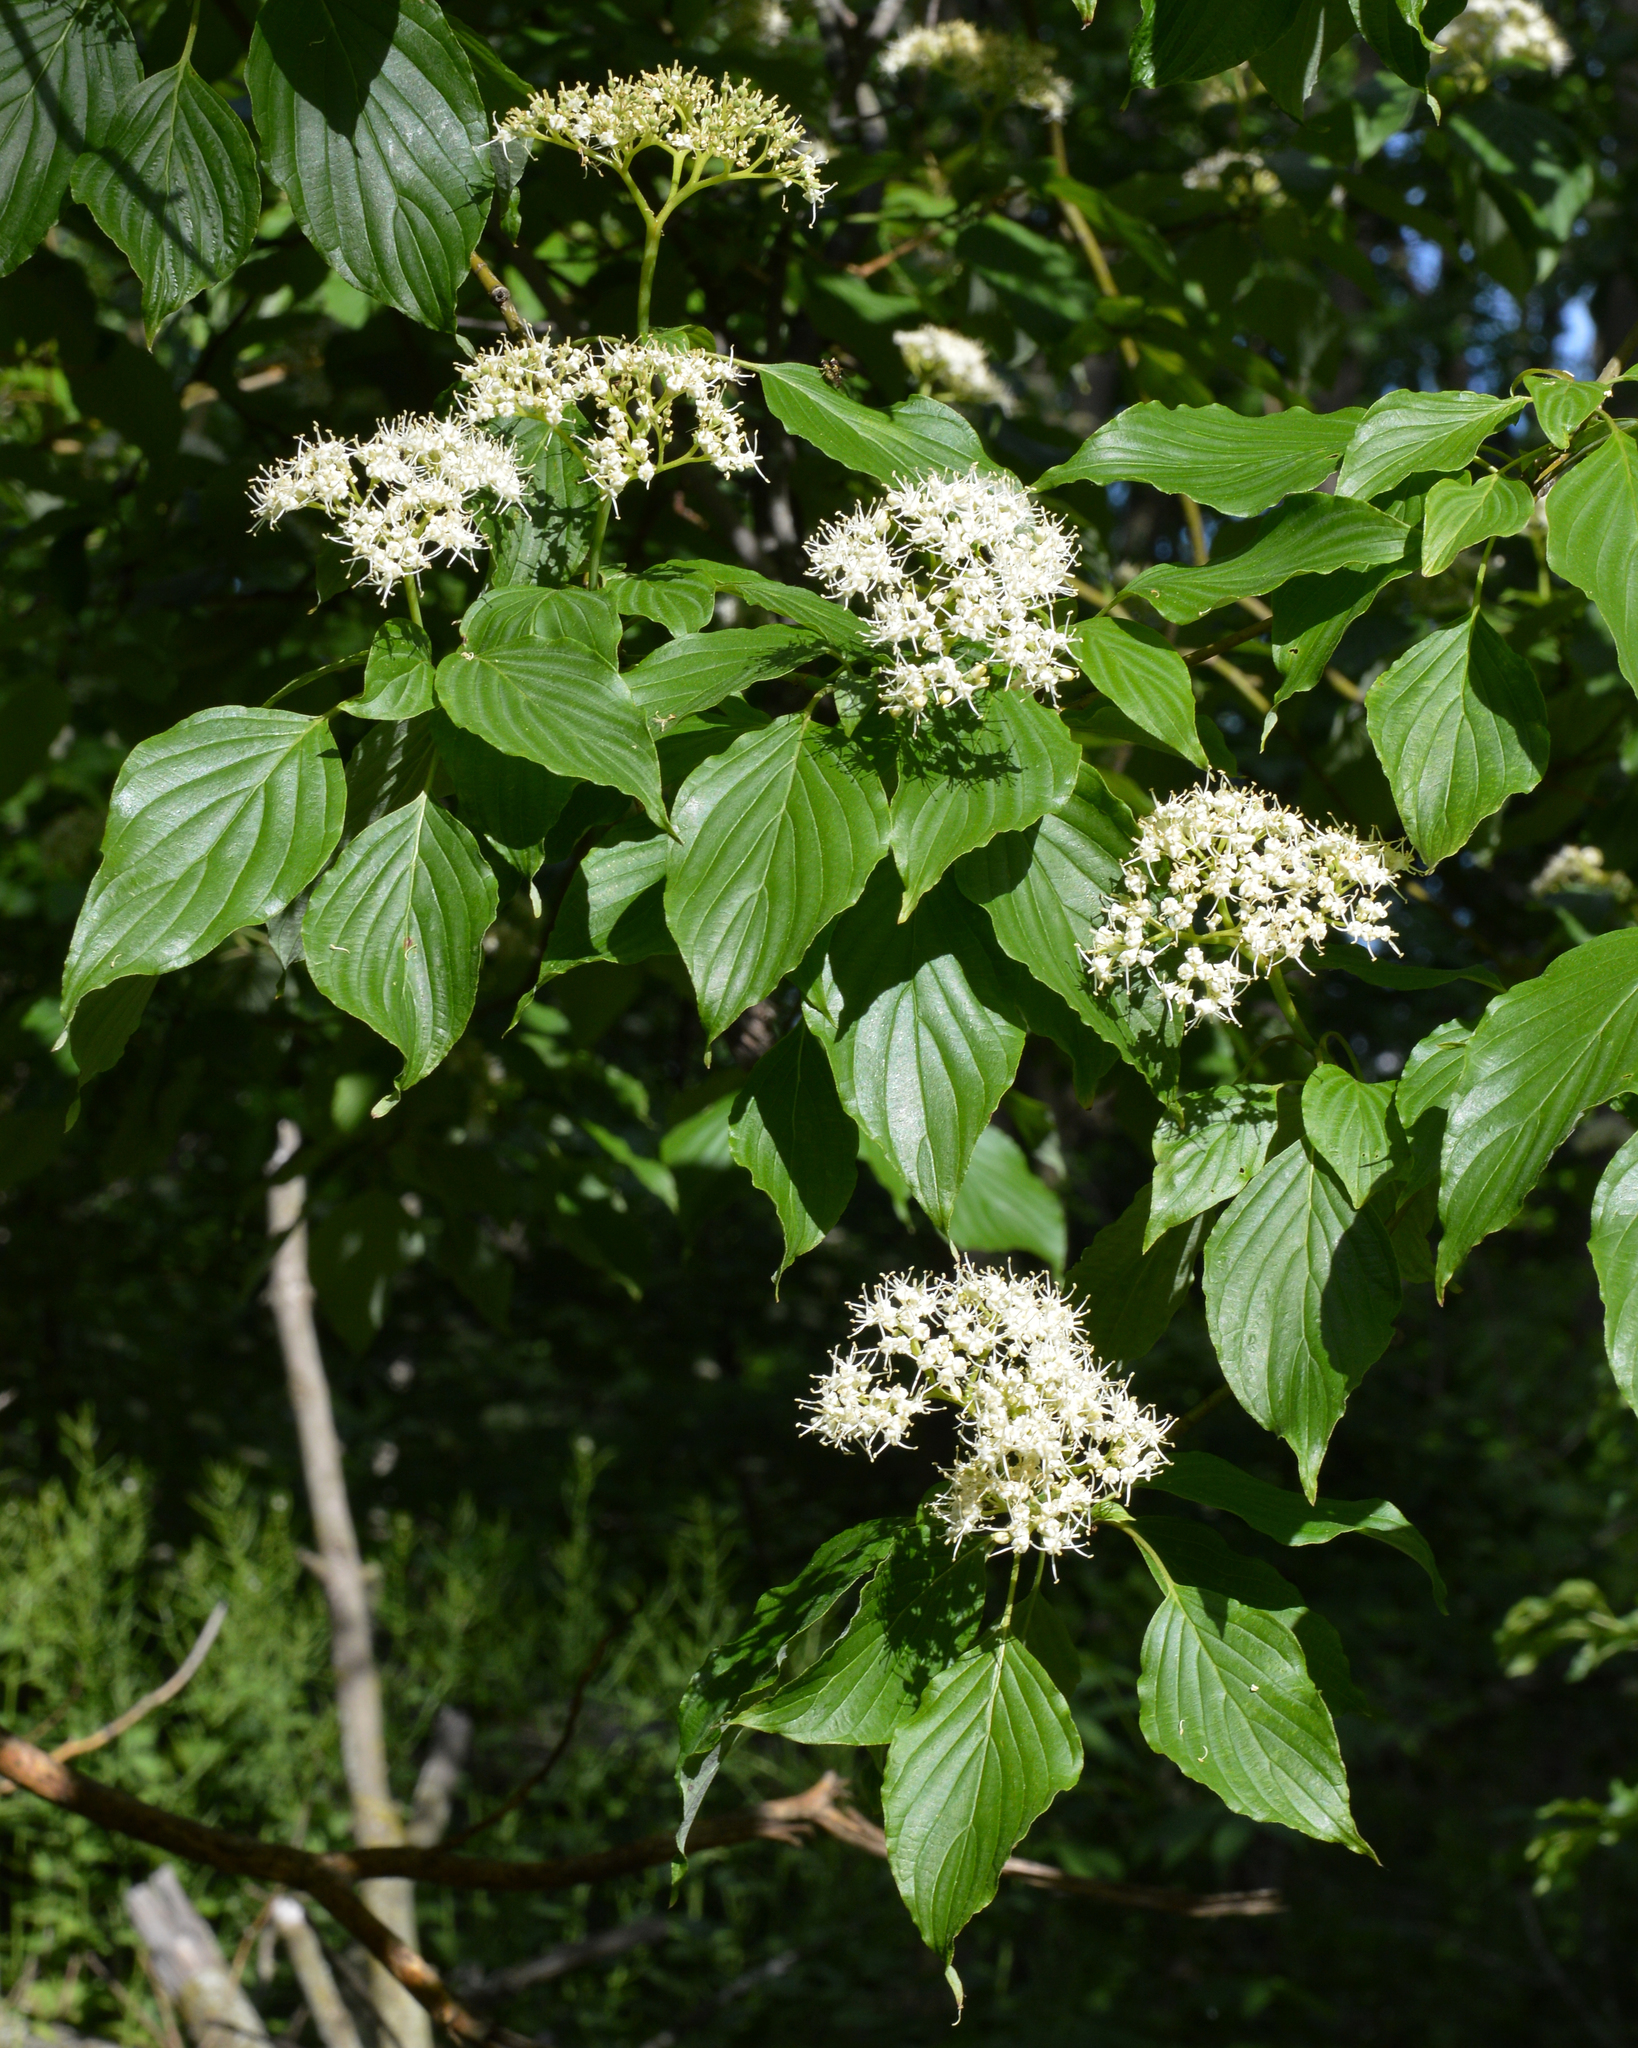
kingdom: Plantae
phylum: Tracheophyta
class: Magnoliopsida
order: Cornales
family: Cornaceae
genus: Cornus
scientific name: Cornus alternifolia
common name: Pagoda dogwood
